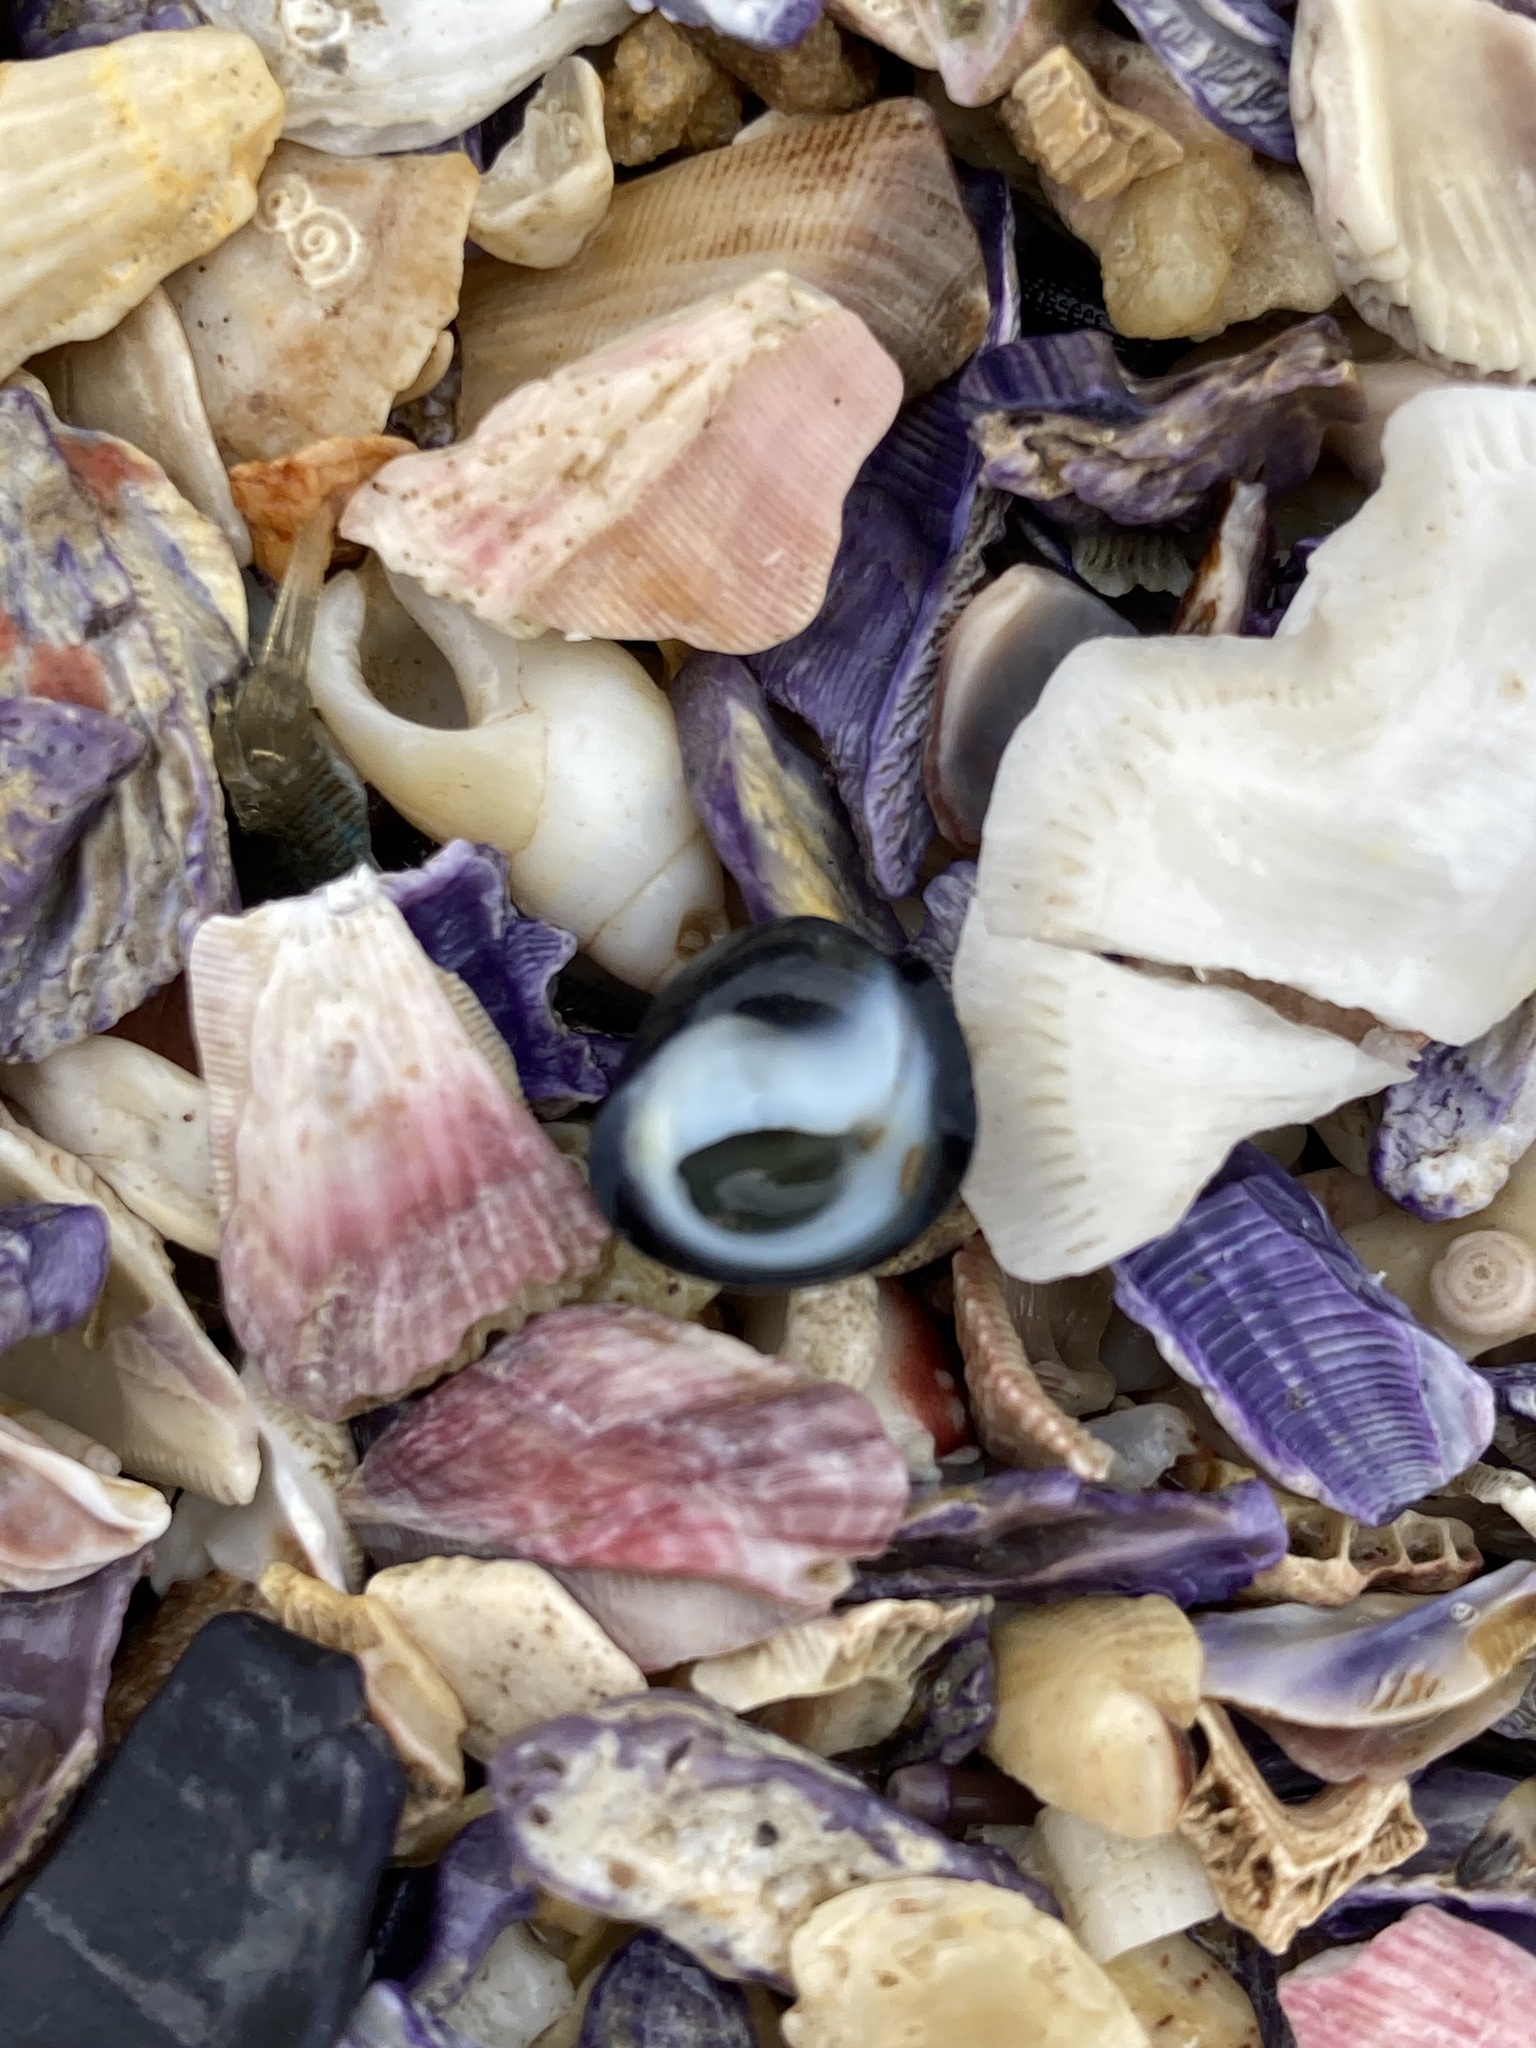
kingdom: Animalia
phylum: Mollusca
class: Gastropoda
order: Cycloneritida
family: Neritidae
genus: Nerita
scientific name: Nerita melanotragus
